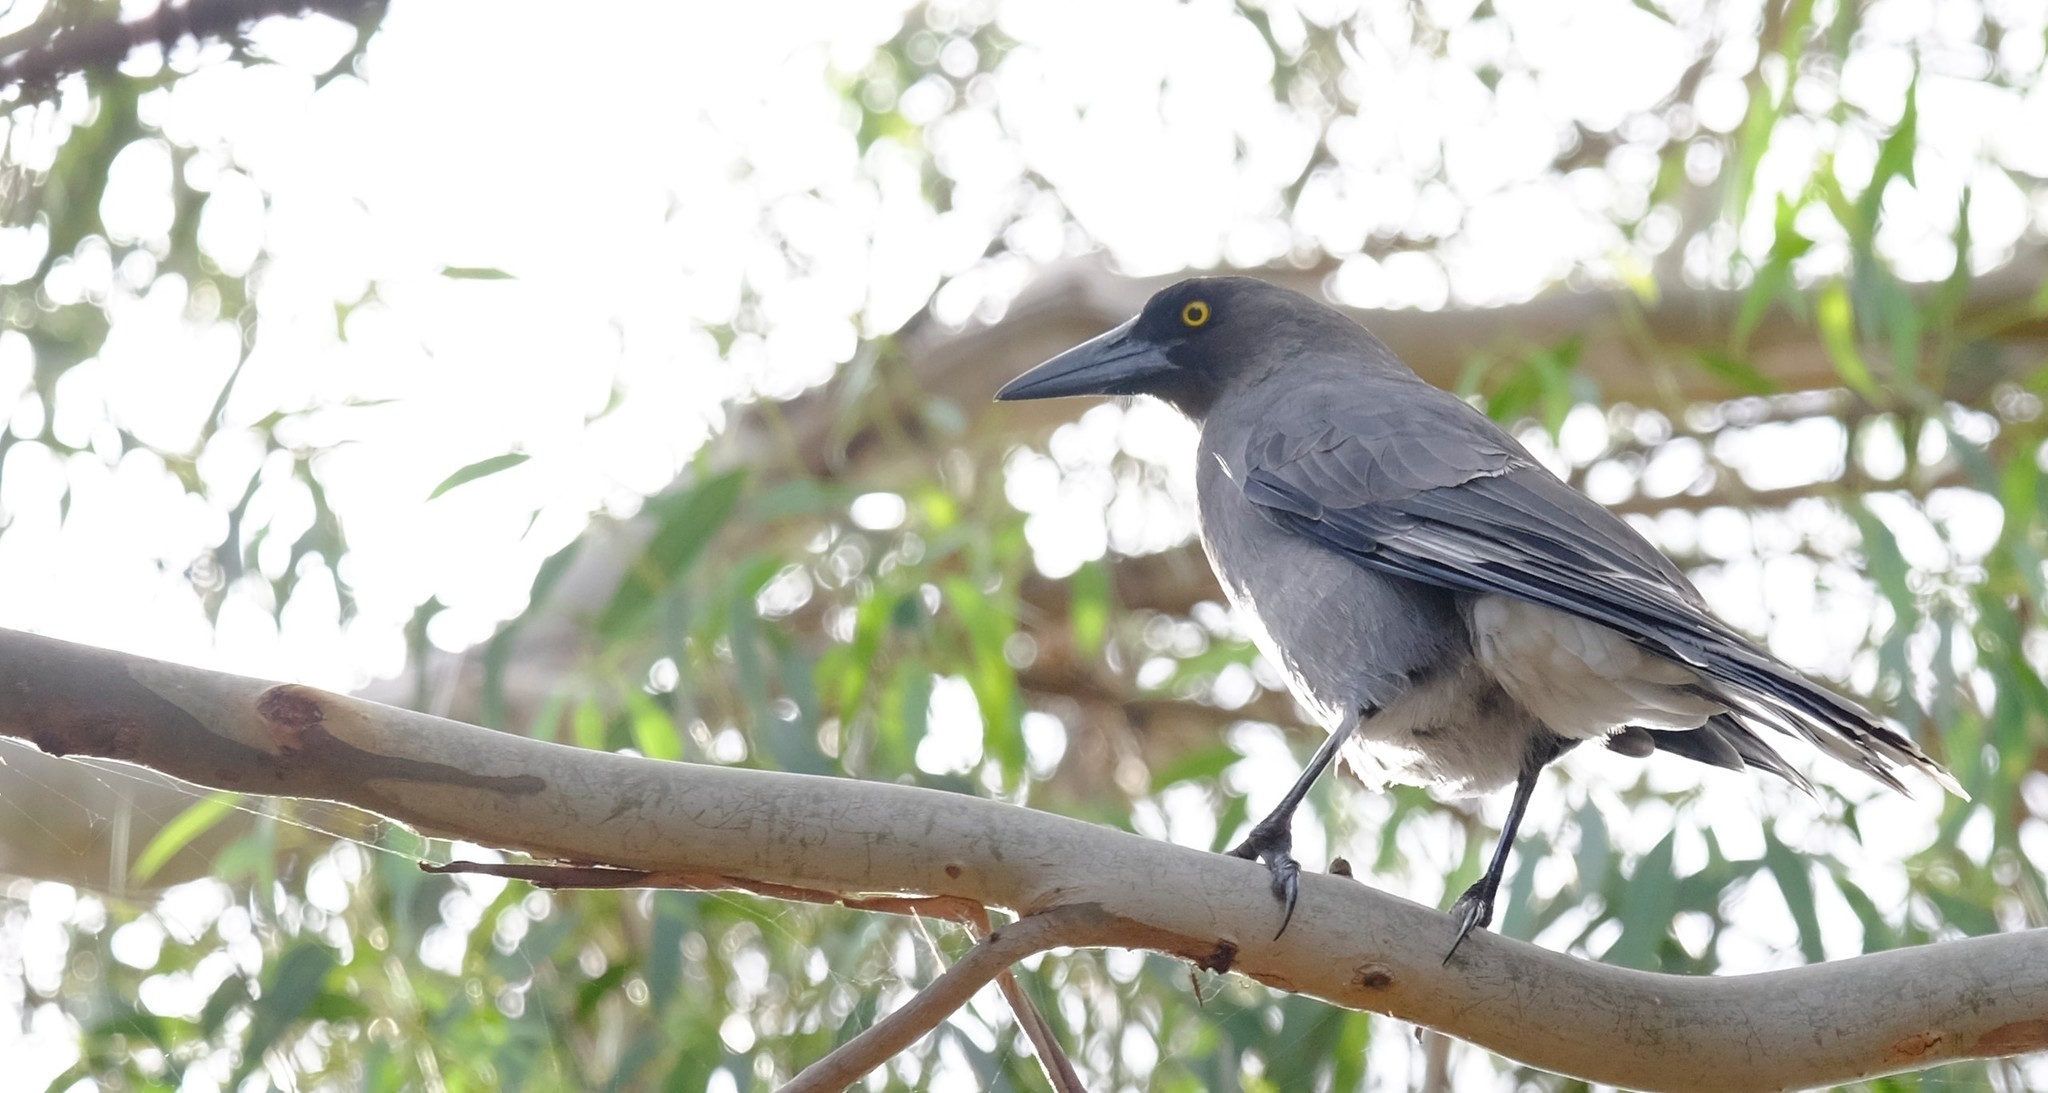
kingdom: Animalia
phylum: Chordata
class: Aves
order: Passeriformes
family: Cracticidae
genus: Strepera
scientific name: Strepera versicolor
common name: Grey currawong
